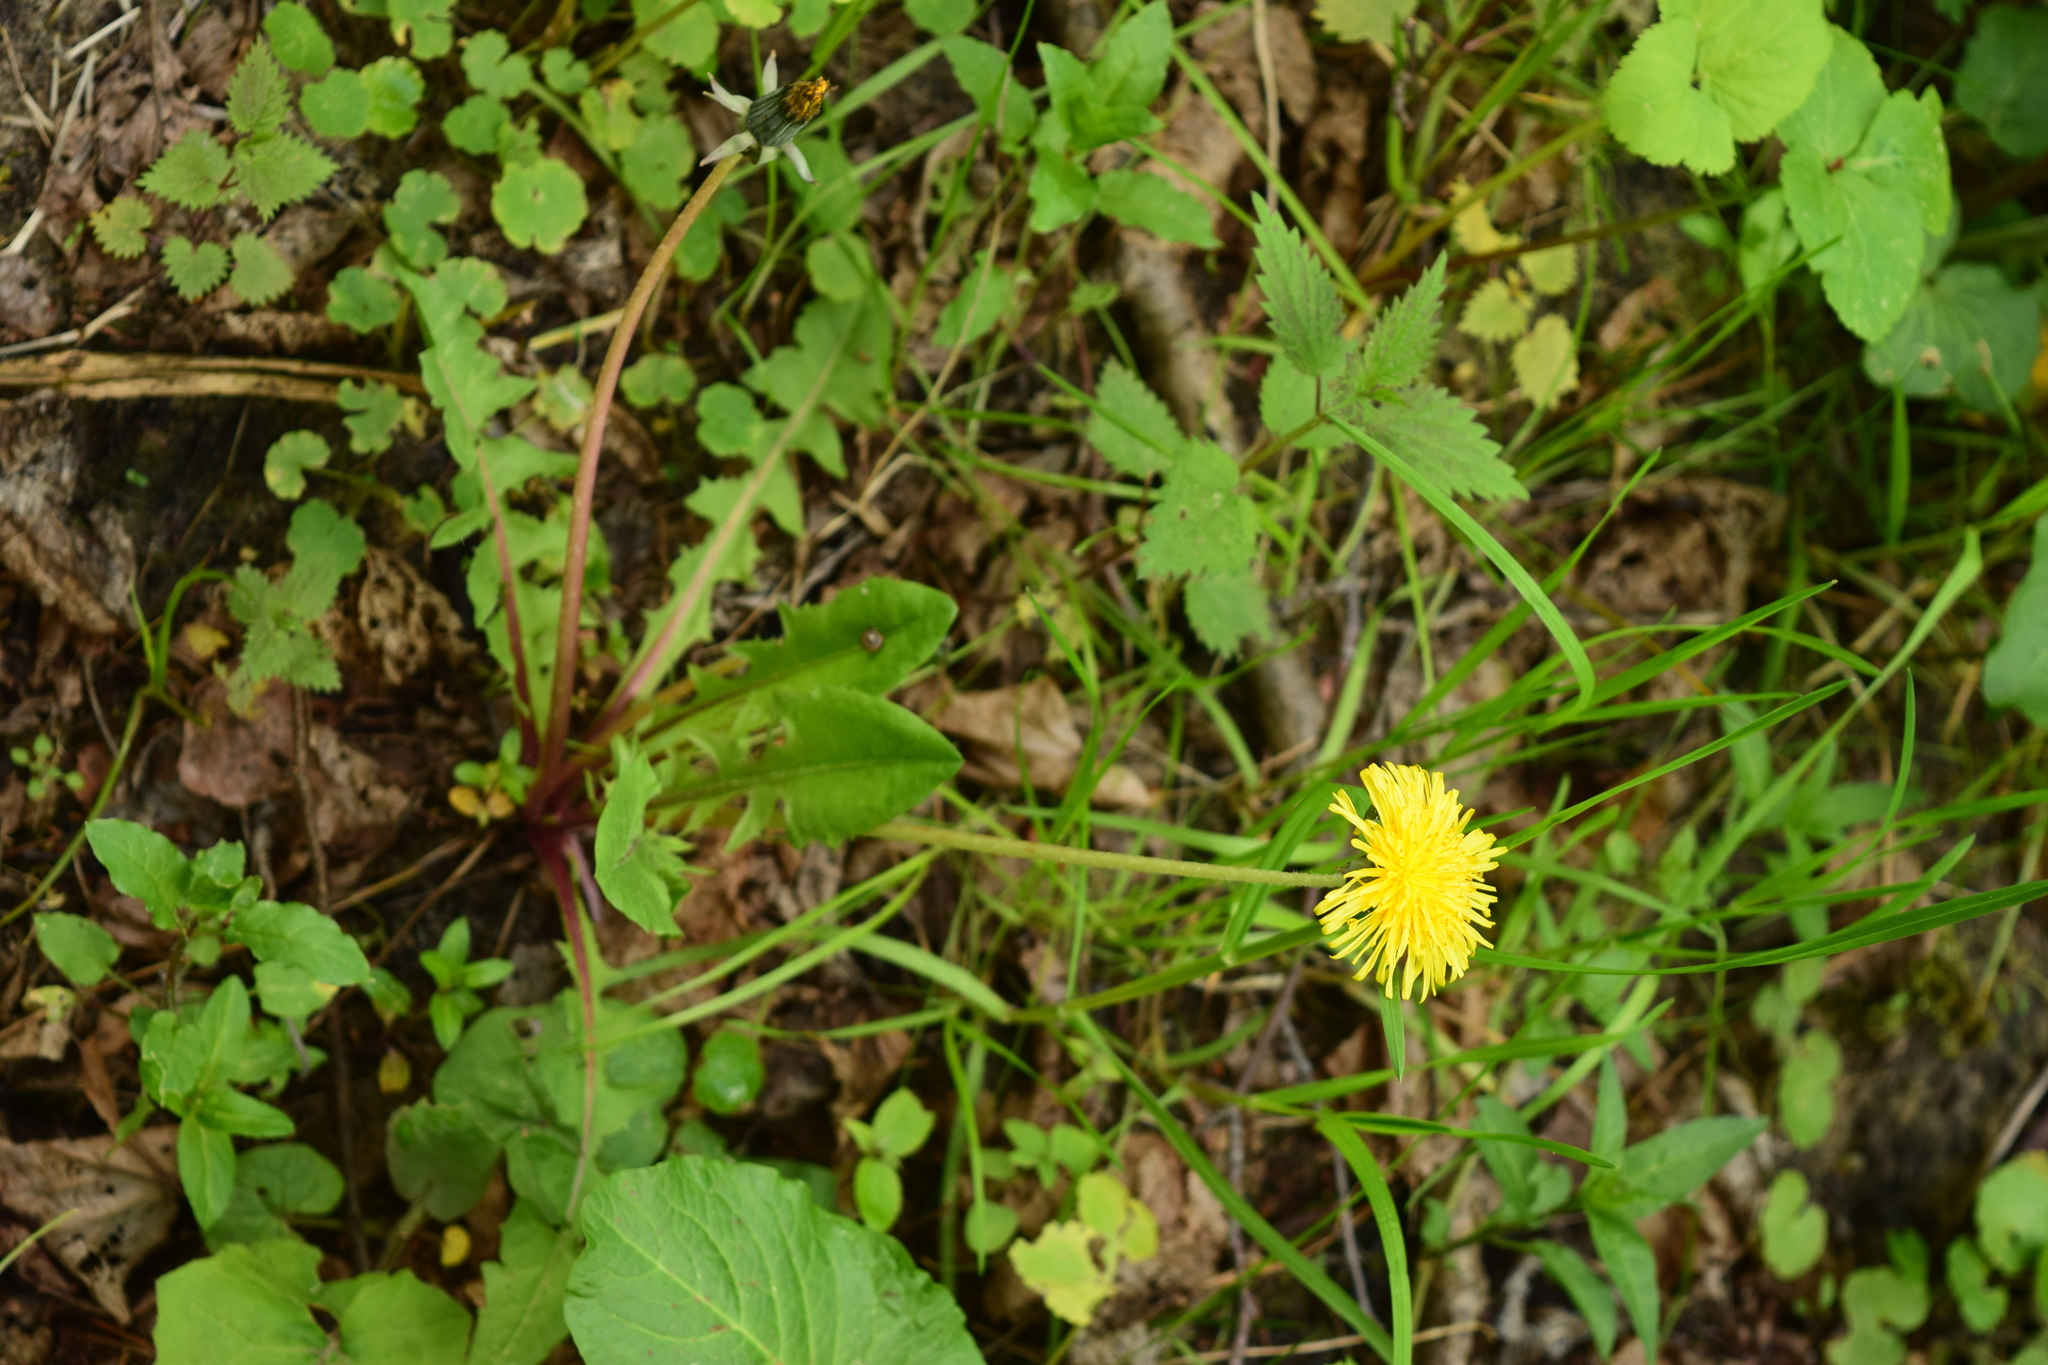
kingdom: Plantae
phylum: Tracheophyta
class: Magnoliopsida
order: Asterales
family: Asteraceae
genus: Taraxacum
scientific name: Taraxacum officinale
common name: Common dandelion
